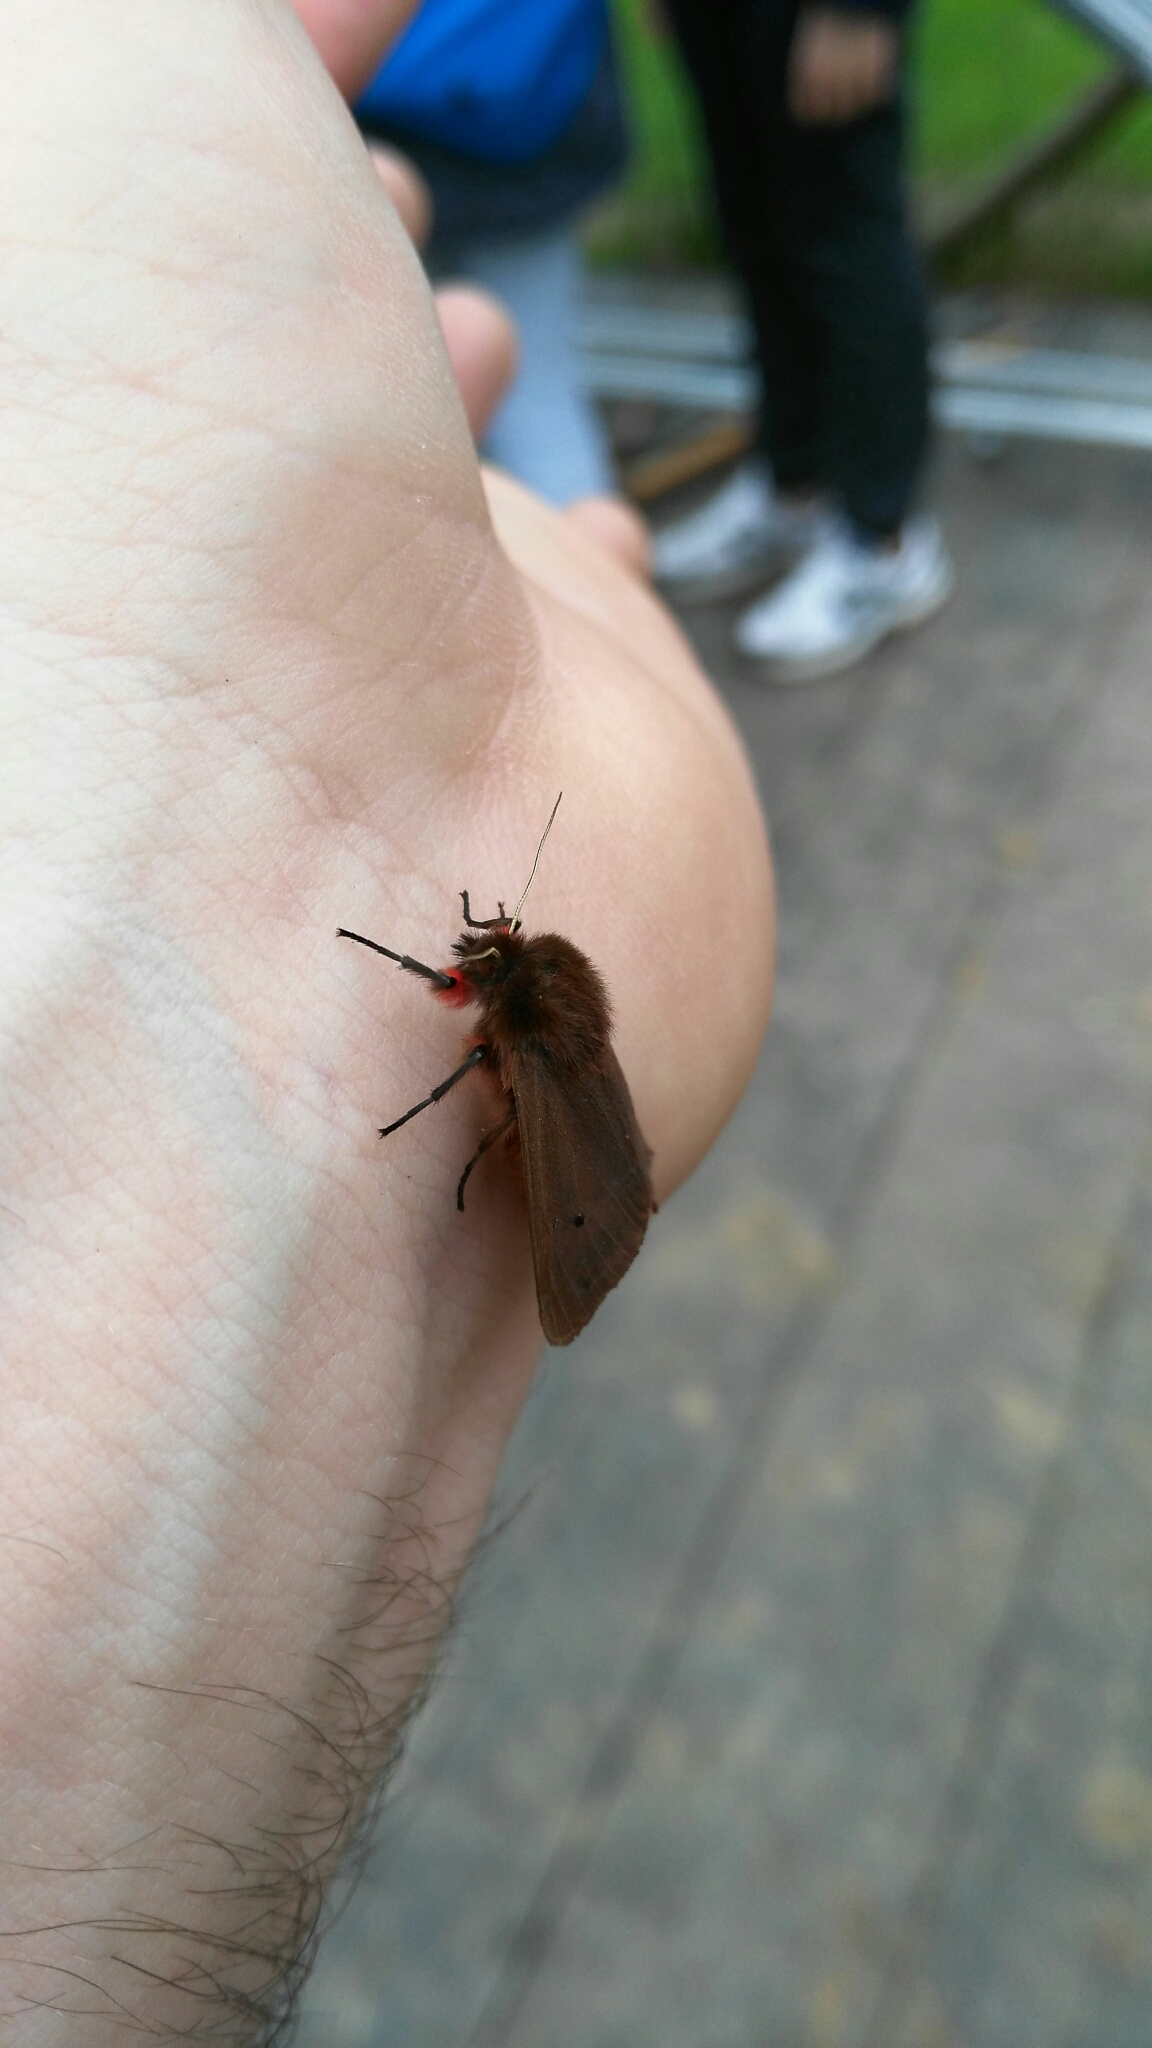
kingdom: Animalia
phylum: Arthropoda
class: Insecta
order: Lepidoptera
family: Erebidae
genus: Phragmatobia
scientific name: Phragmatobia fuliginosa
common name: Ruby tiger
